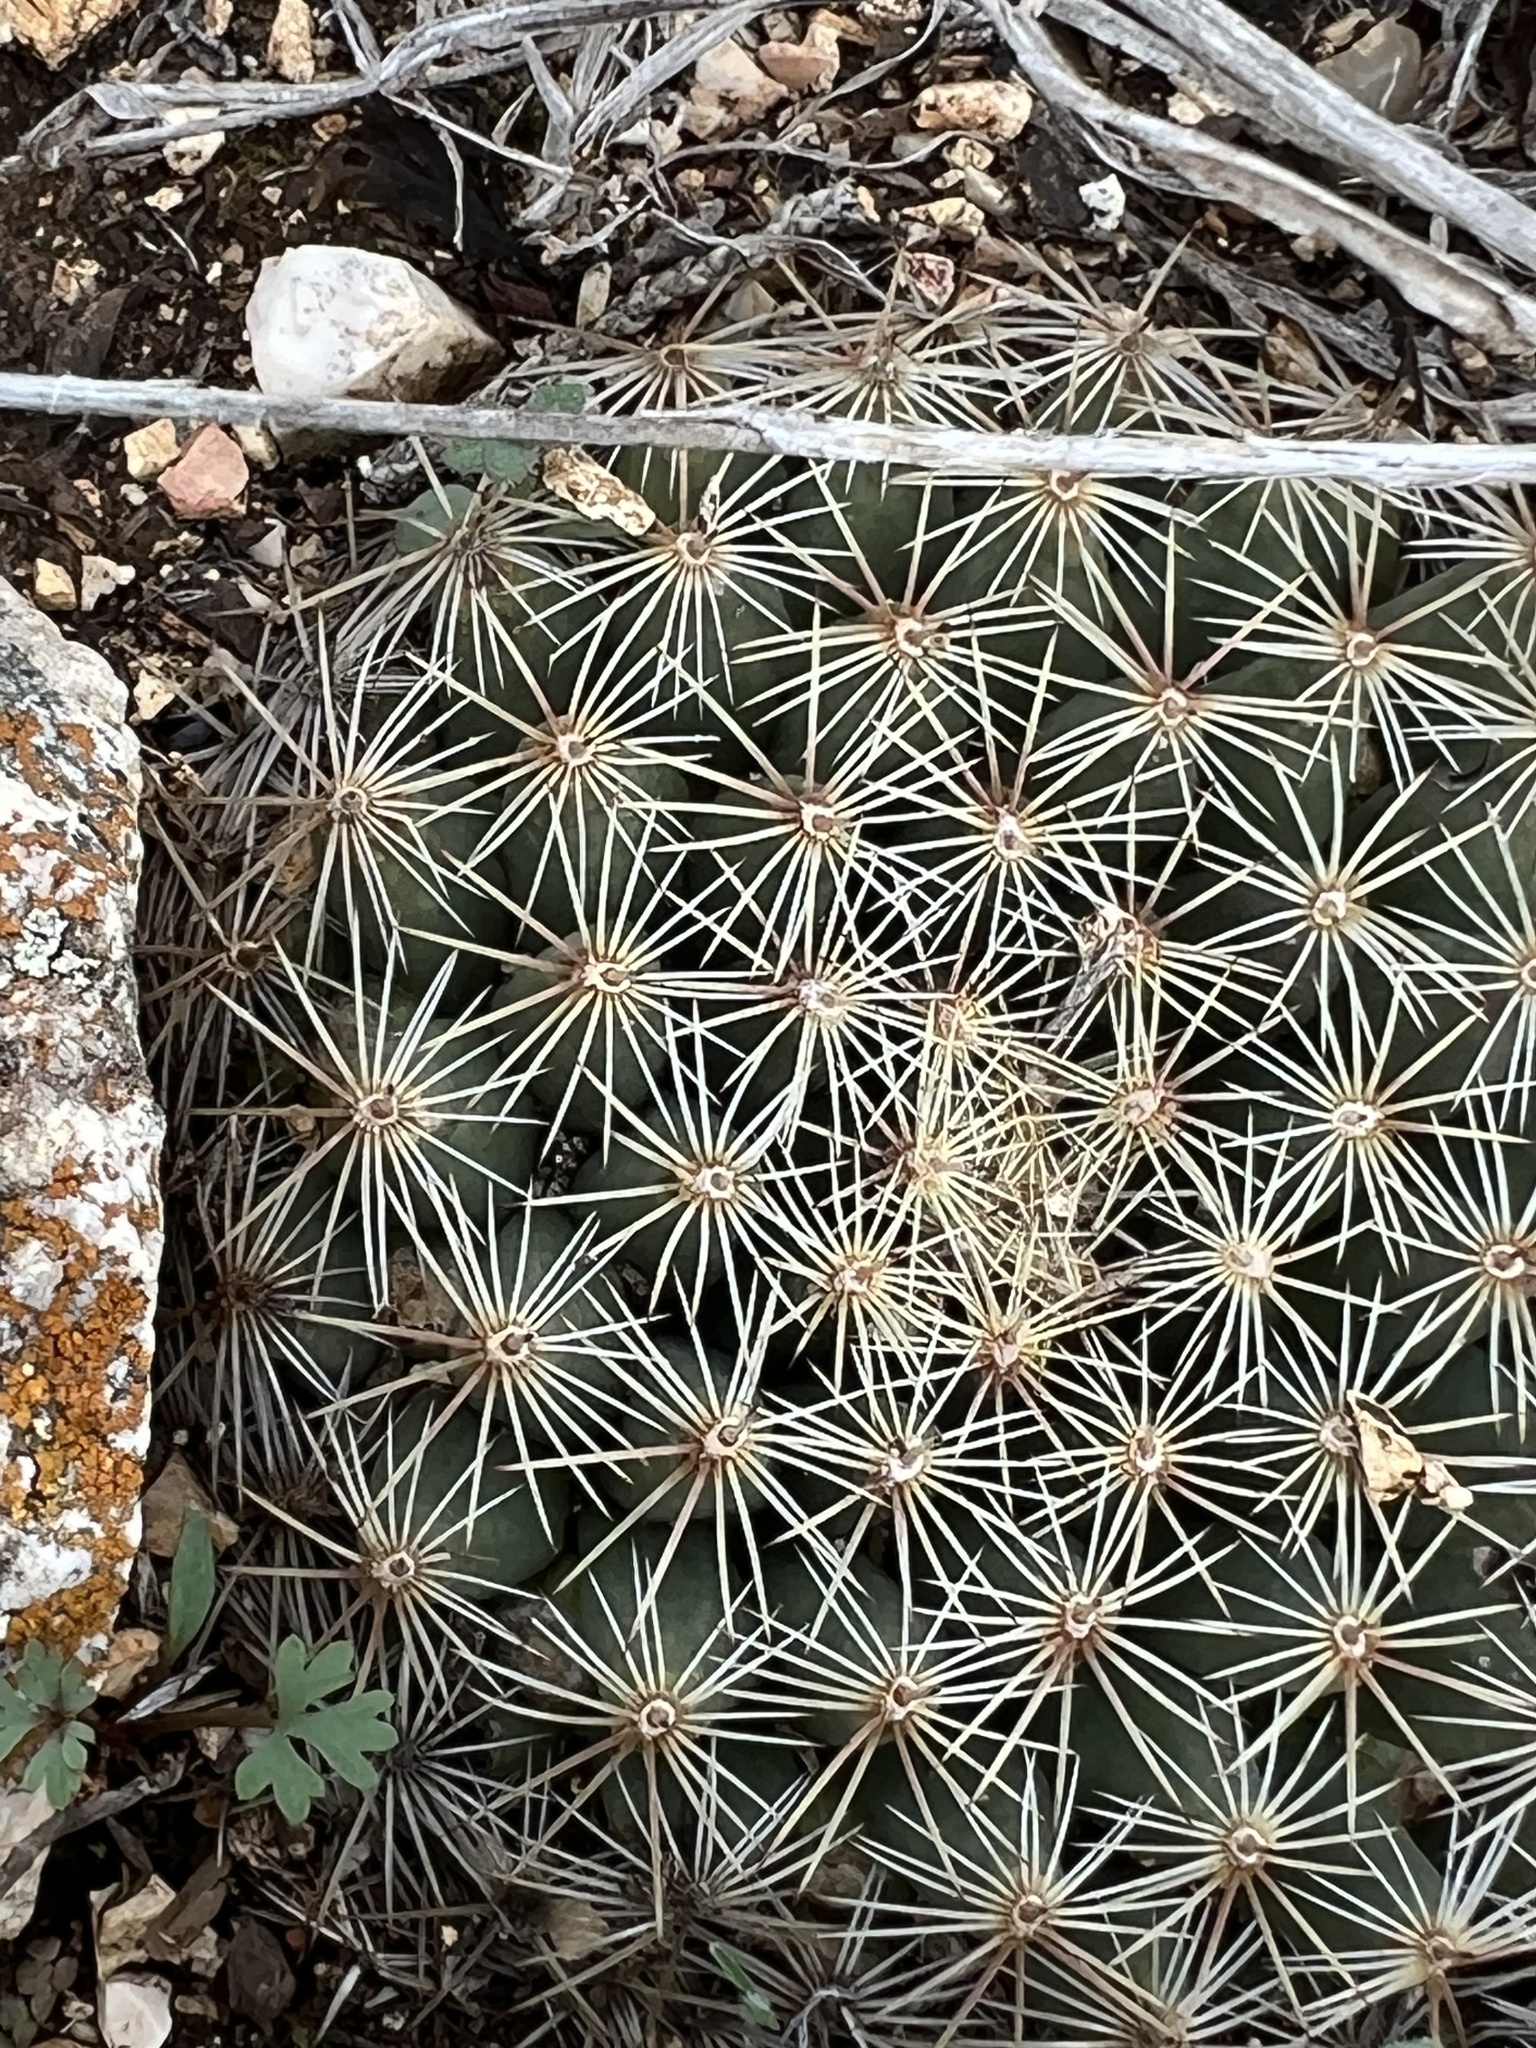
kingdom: Plantae
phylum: Tracheophyta
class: Magnoliopsida
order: Caryophyllales
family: Cactaceae
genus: Mammillaria
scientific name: Mammillaria heyderi
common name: Little nipple cactus
